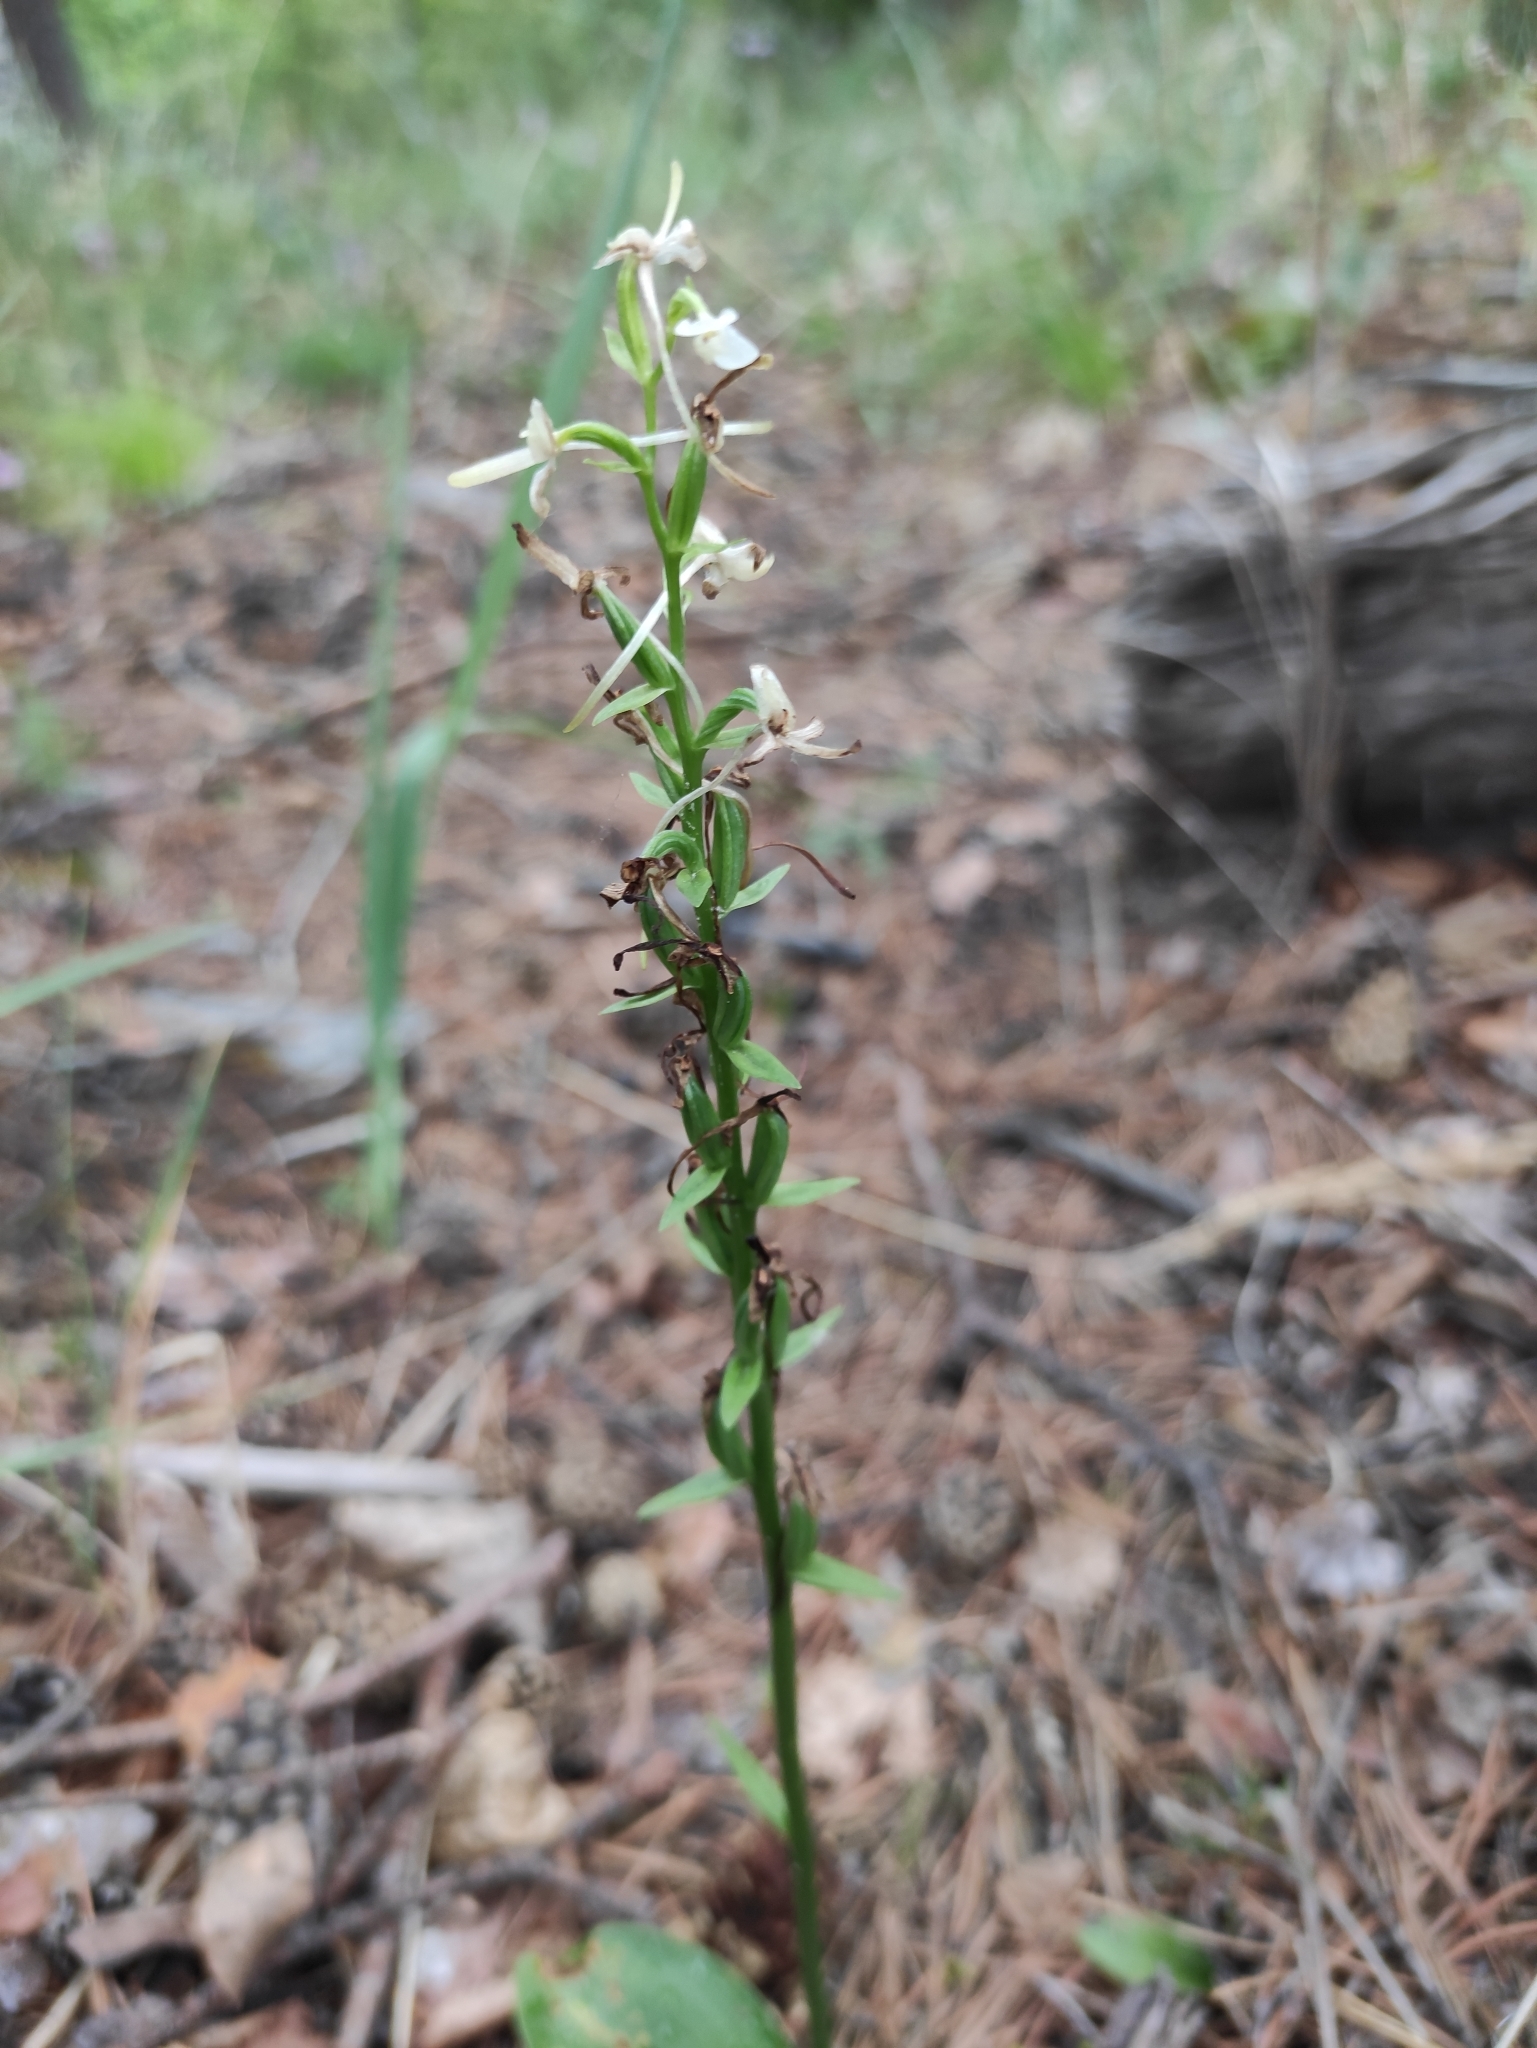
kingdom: Plantae
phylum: Tracheophyta
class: Liliopsida
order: Asparagales
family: Orchidaceae
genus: Platanthera
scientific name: Platanthera bifolia
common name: Lesser butterfly-orchid
